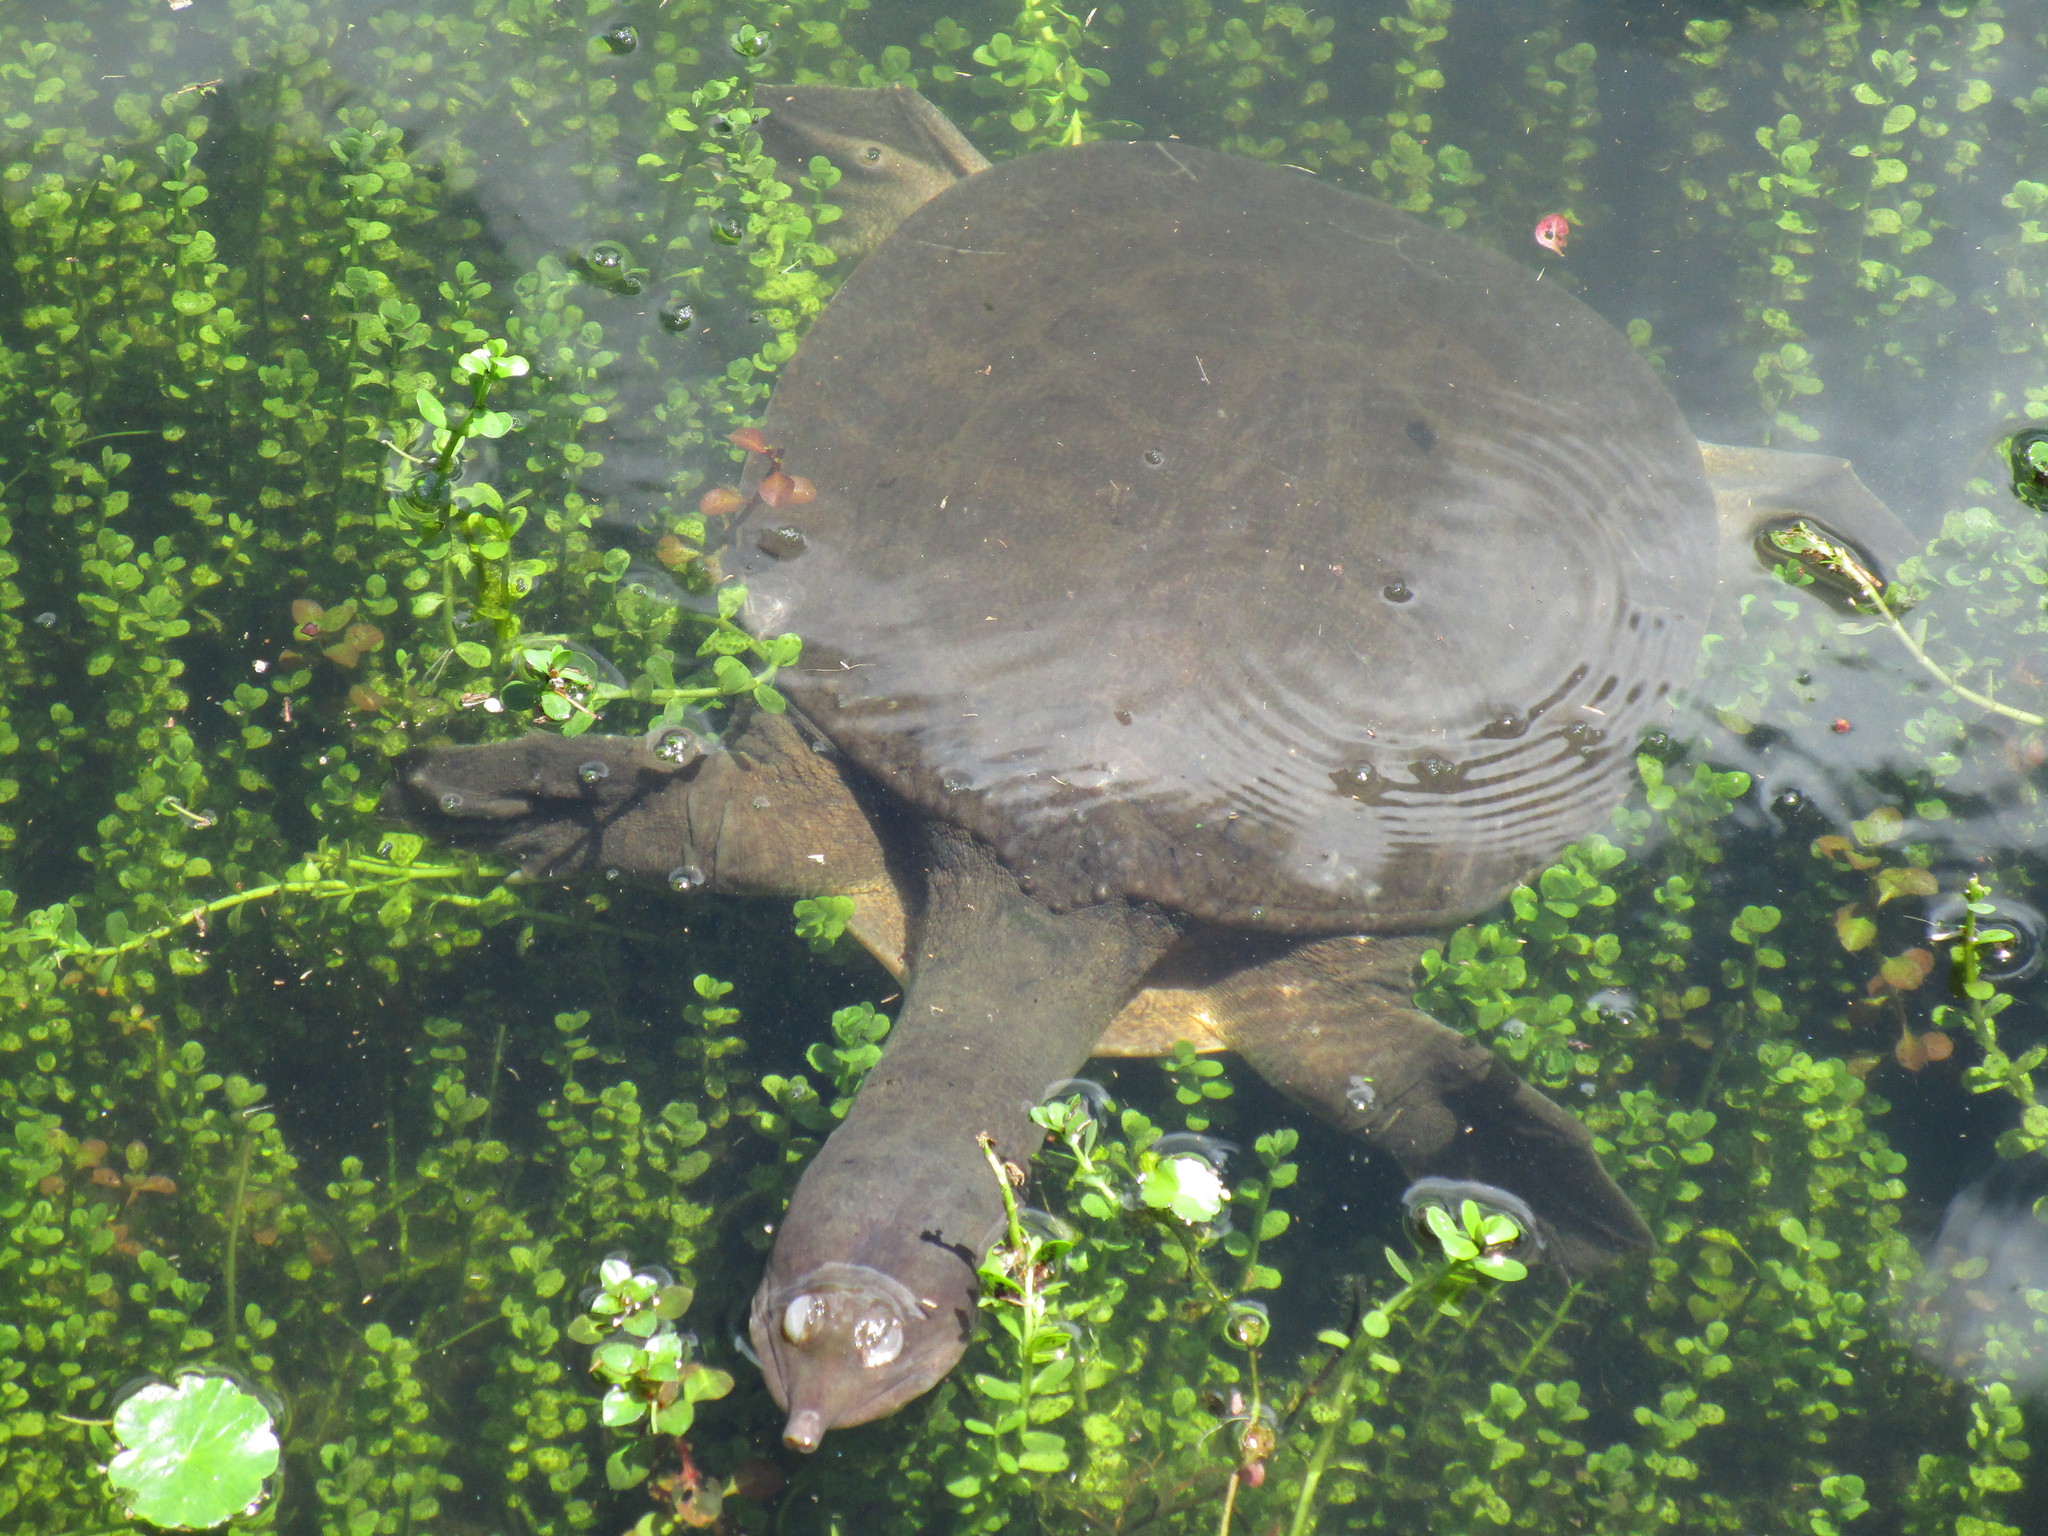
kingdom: Animalia
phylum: Chordata
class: Testudines
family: Trionychidae
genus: Apalone
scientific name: Apalone ferox
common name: Florida softshell turtle
